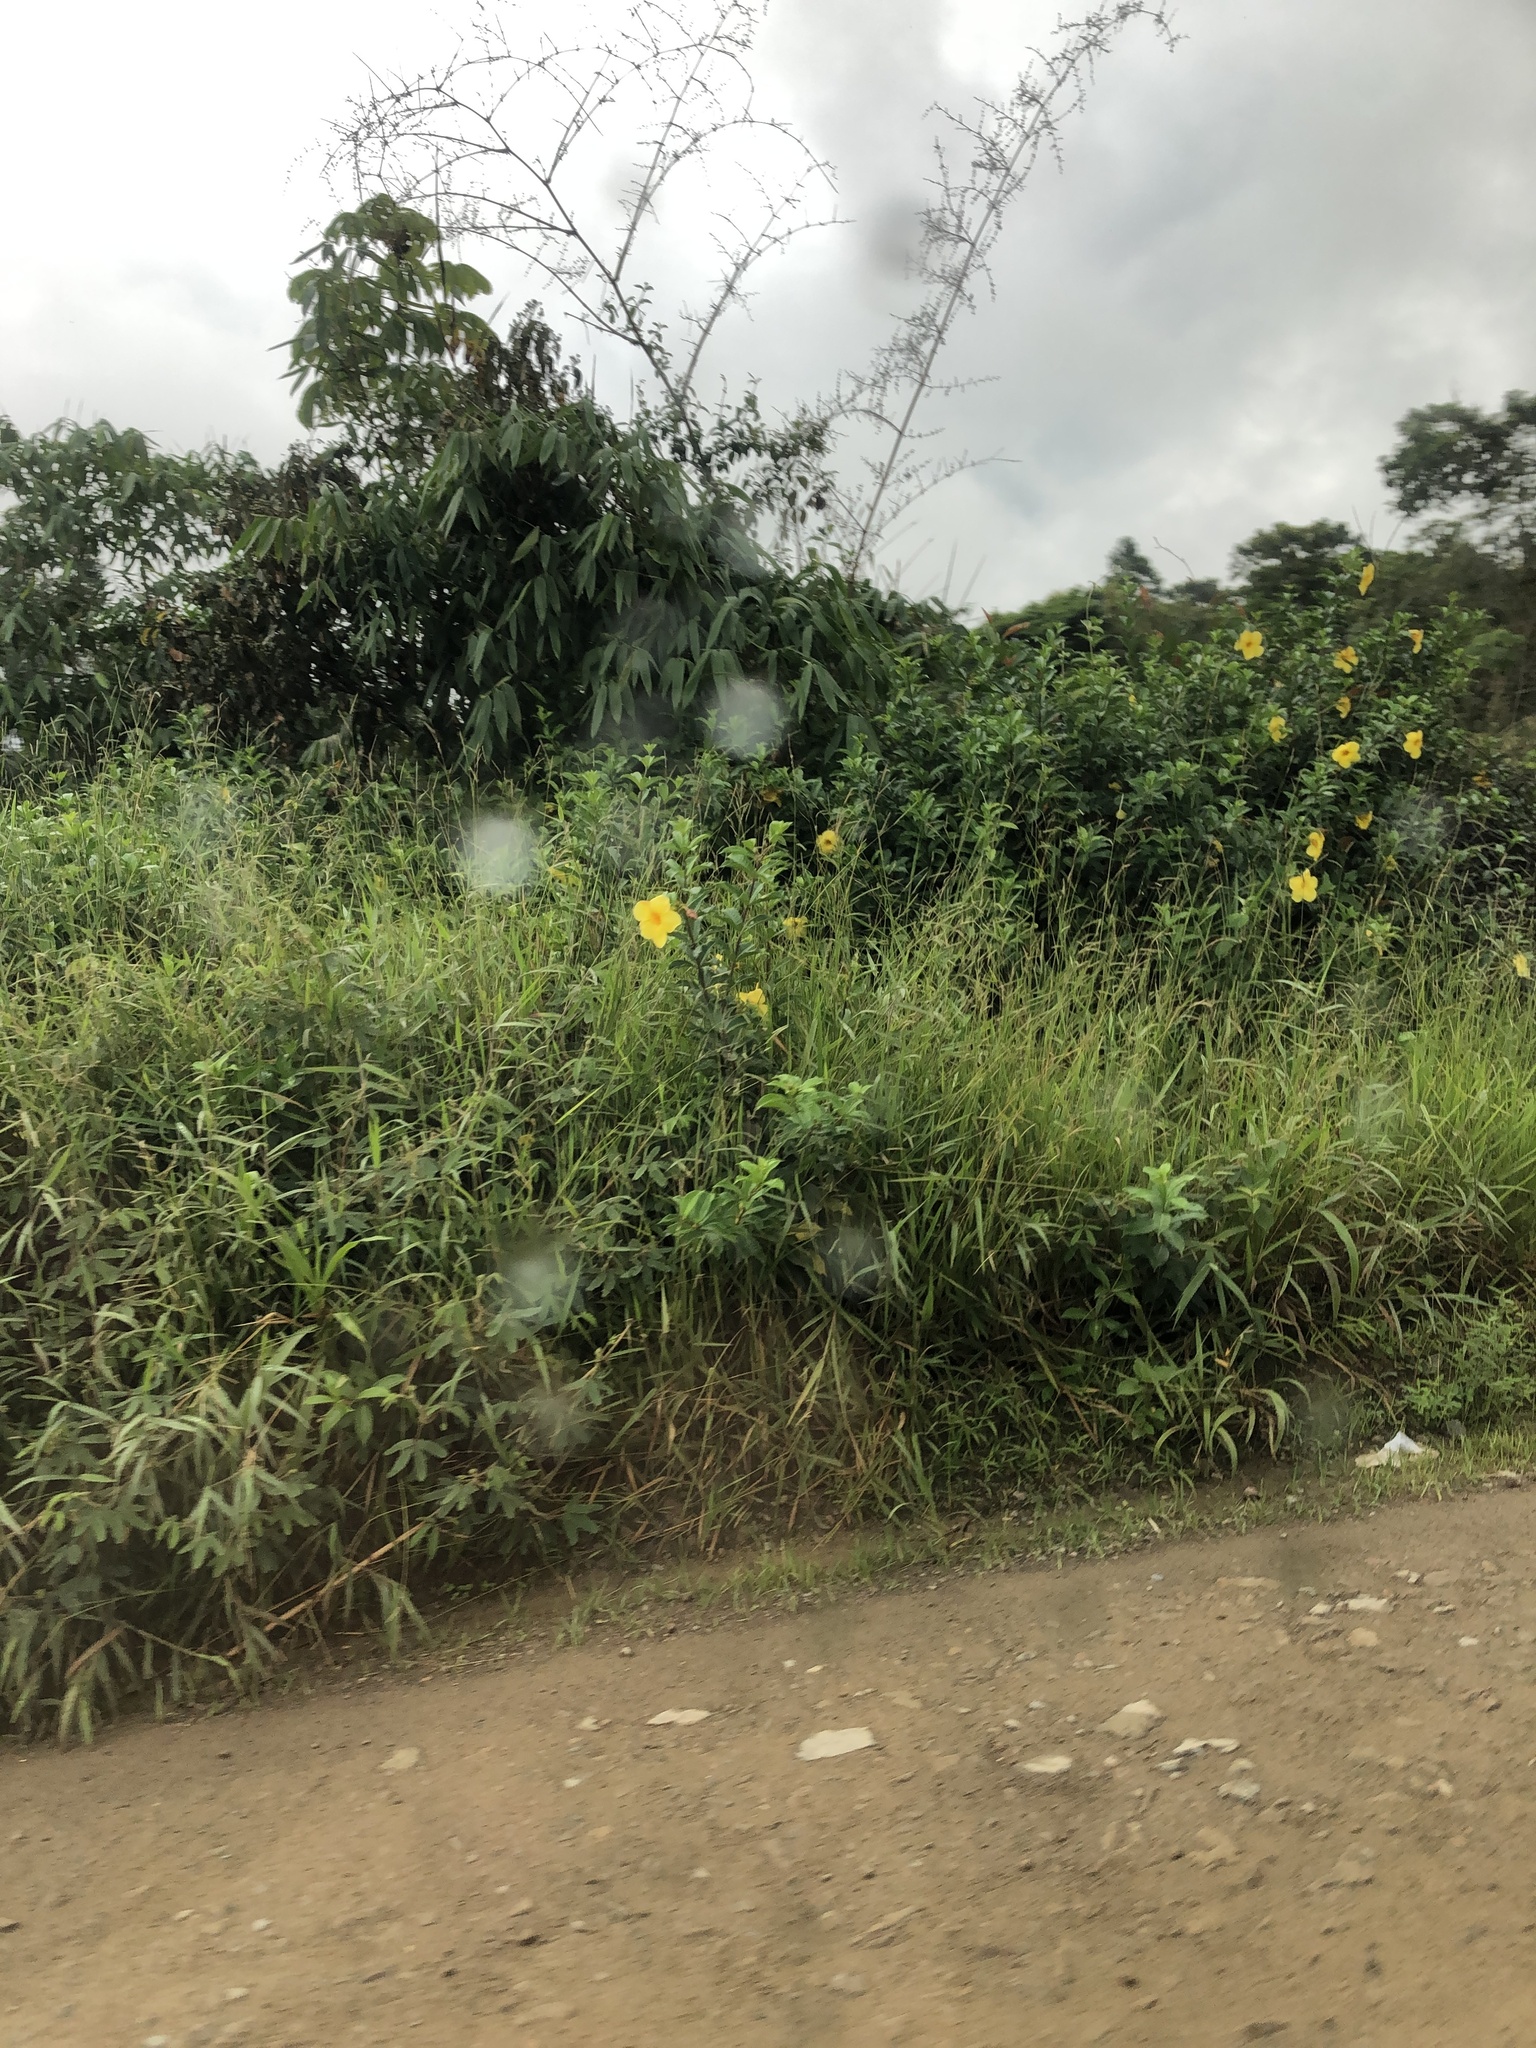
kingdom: Plantae
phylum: Tracheophyta
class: Magnoliopsida
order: Gentianales
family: Apocynaceae
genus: Allamanda
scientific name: Allamanda cathartica
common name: Golden trumpet
